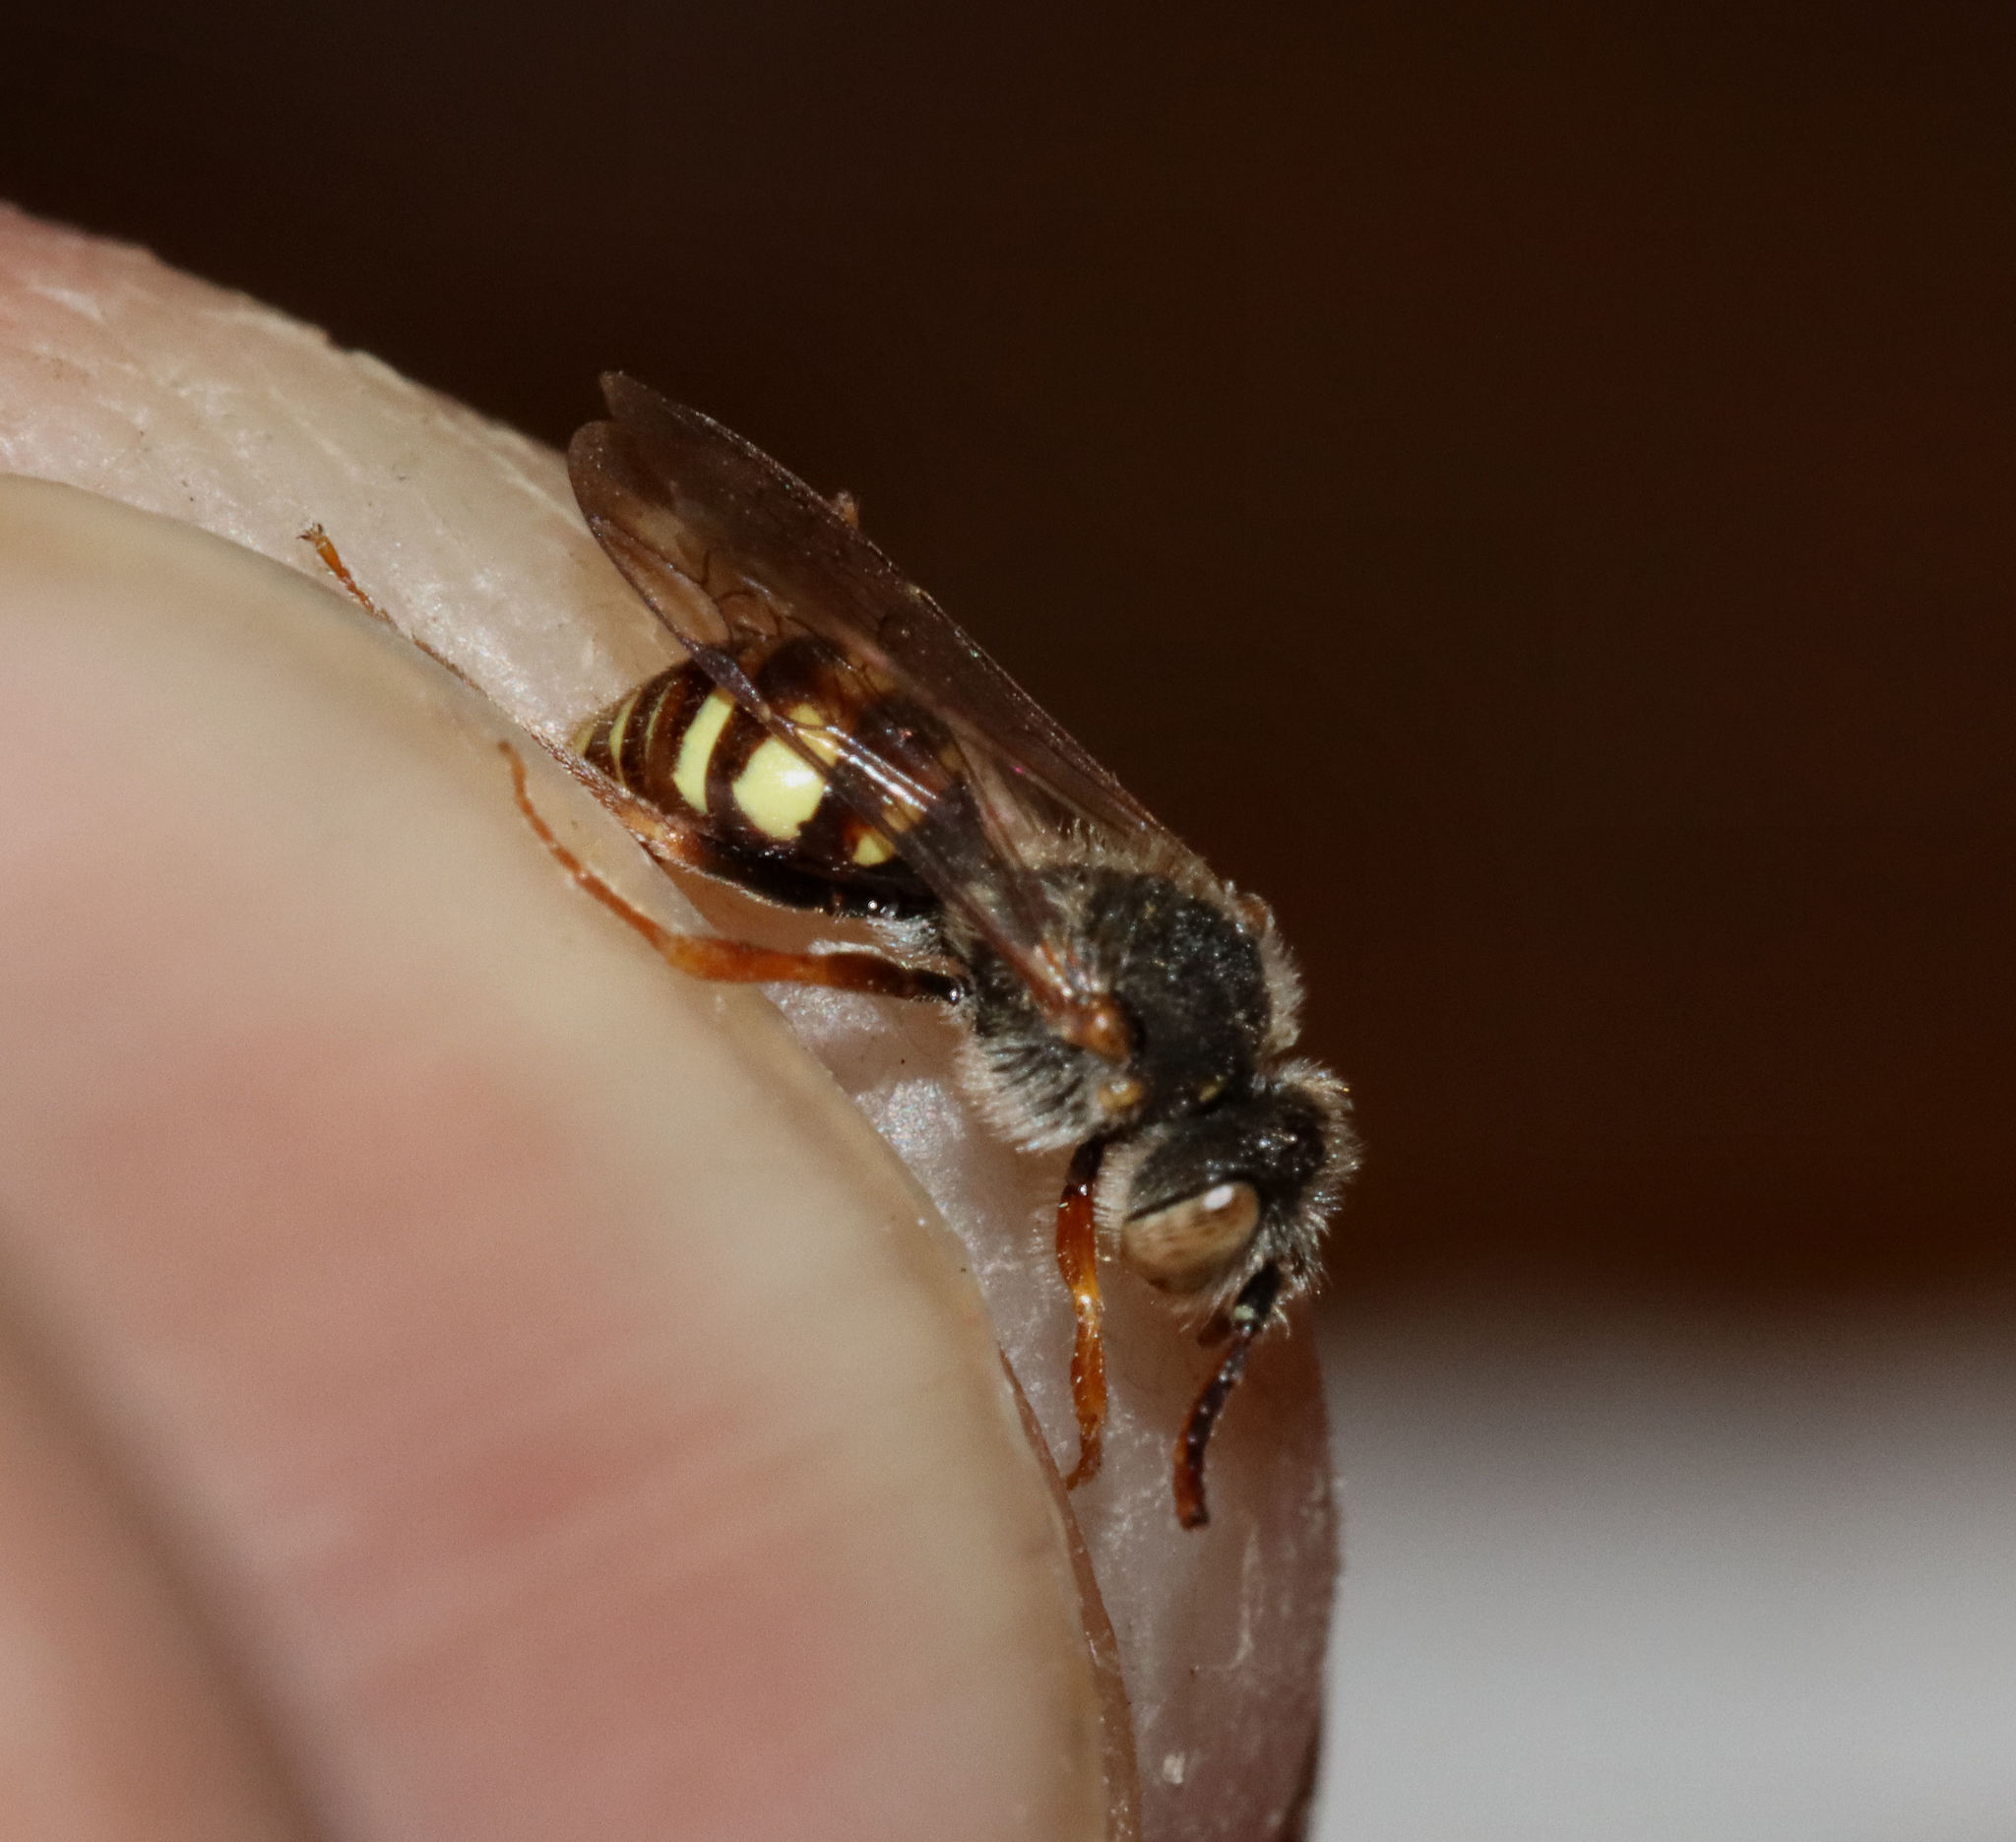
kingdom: Animalia
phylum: Arthropoda
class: Insecta
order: Hymenoptera
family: Apidae
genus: Nomada
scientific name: Nomada
